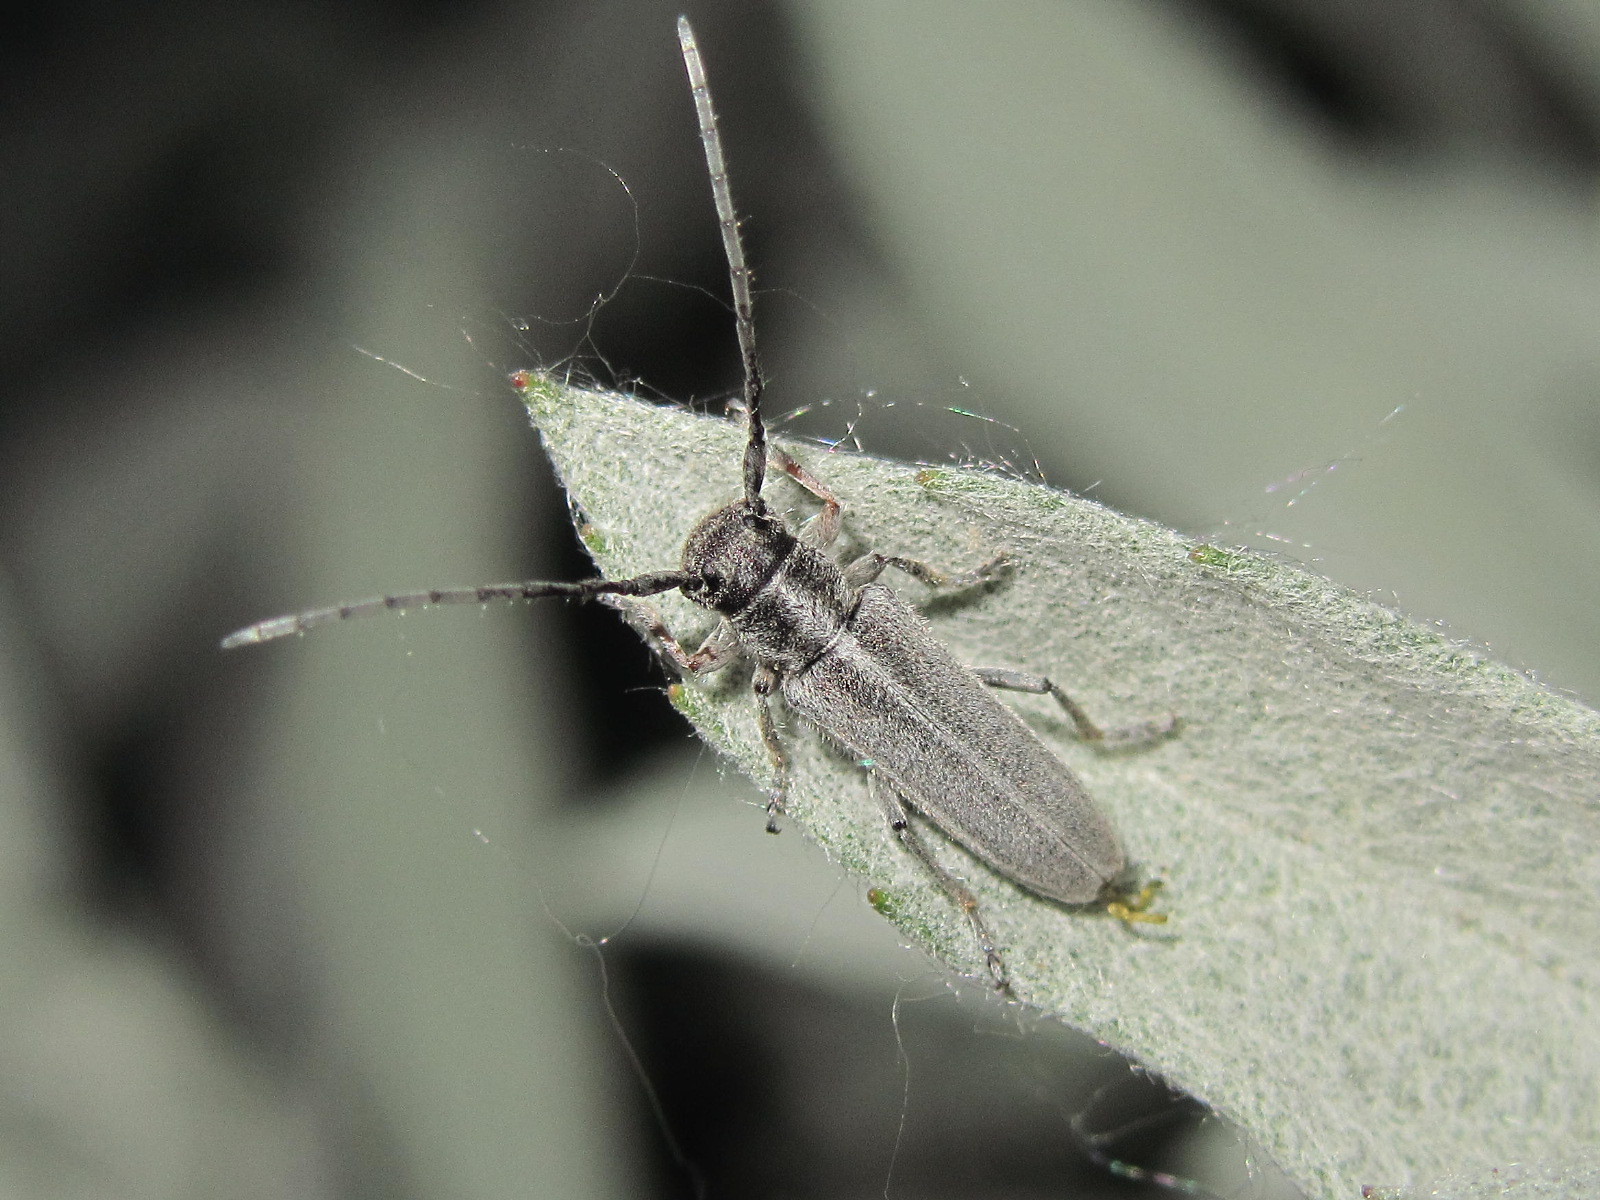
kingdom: Animalia
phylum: Arthropoda
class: Insecta
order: Coleoptera
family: Cerambycidae
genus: Phytoecia
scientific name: Phytoecia pustulata
